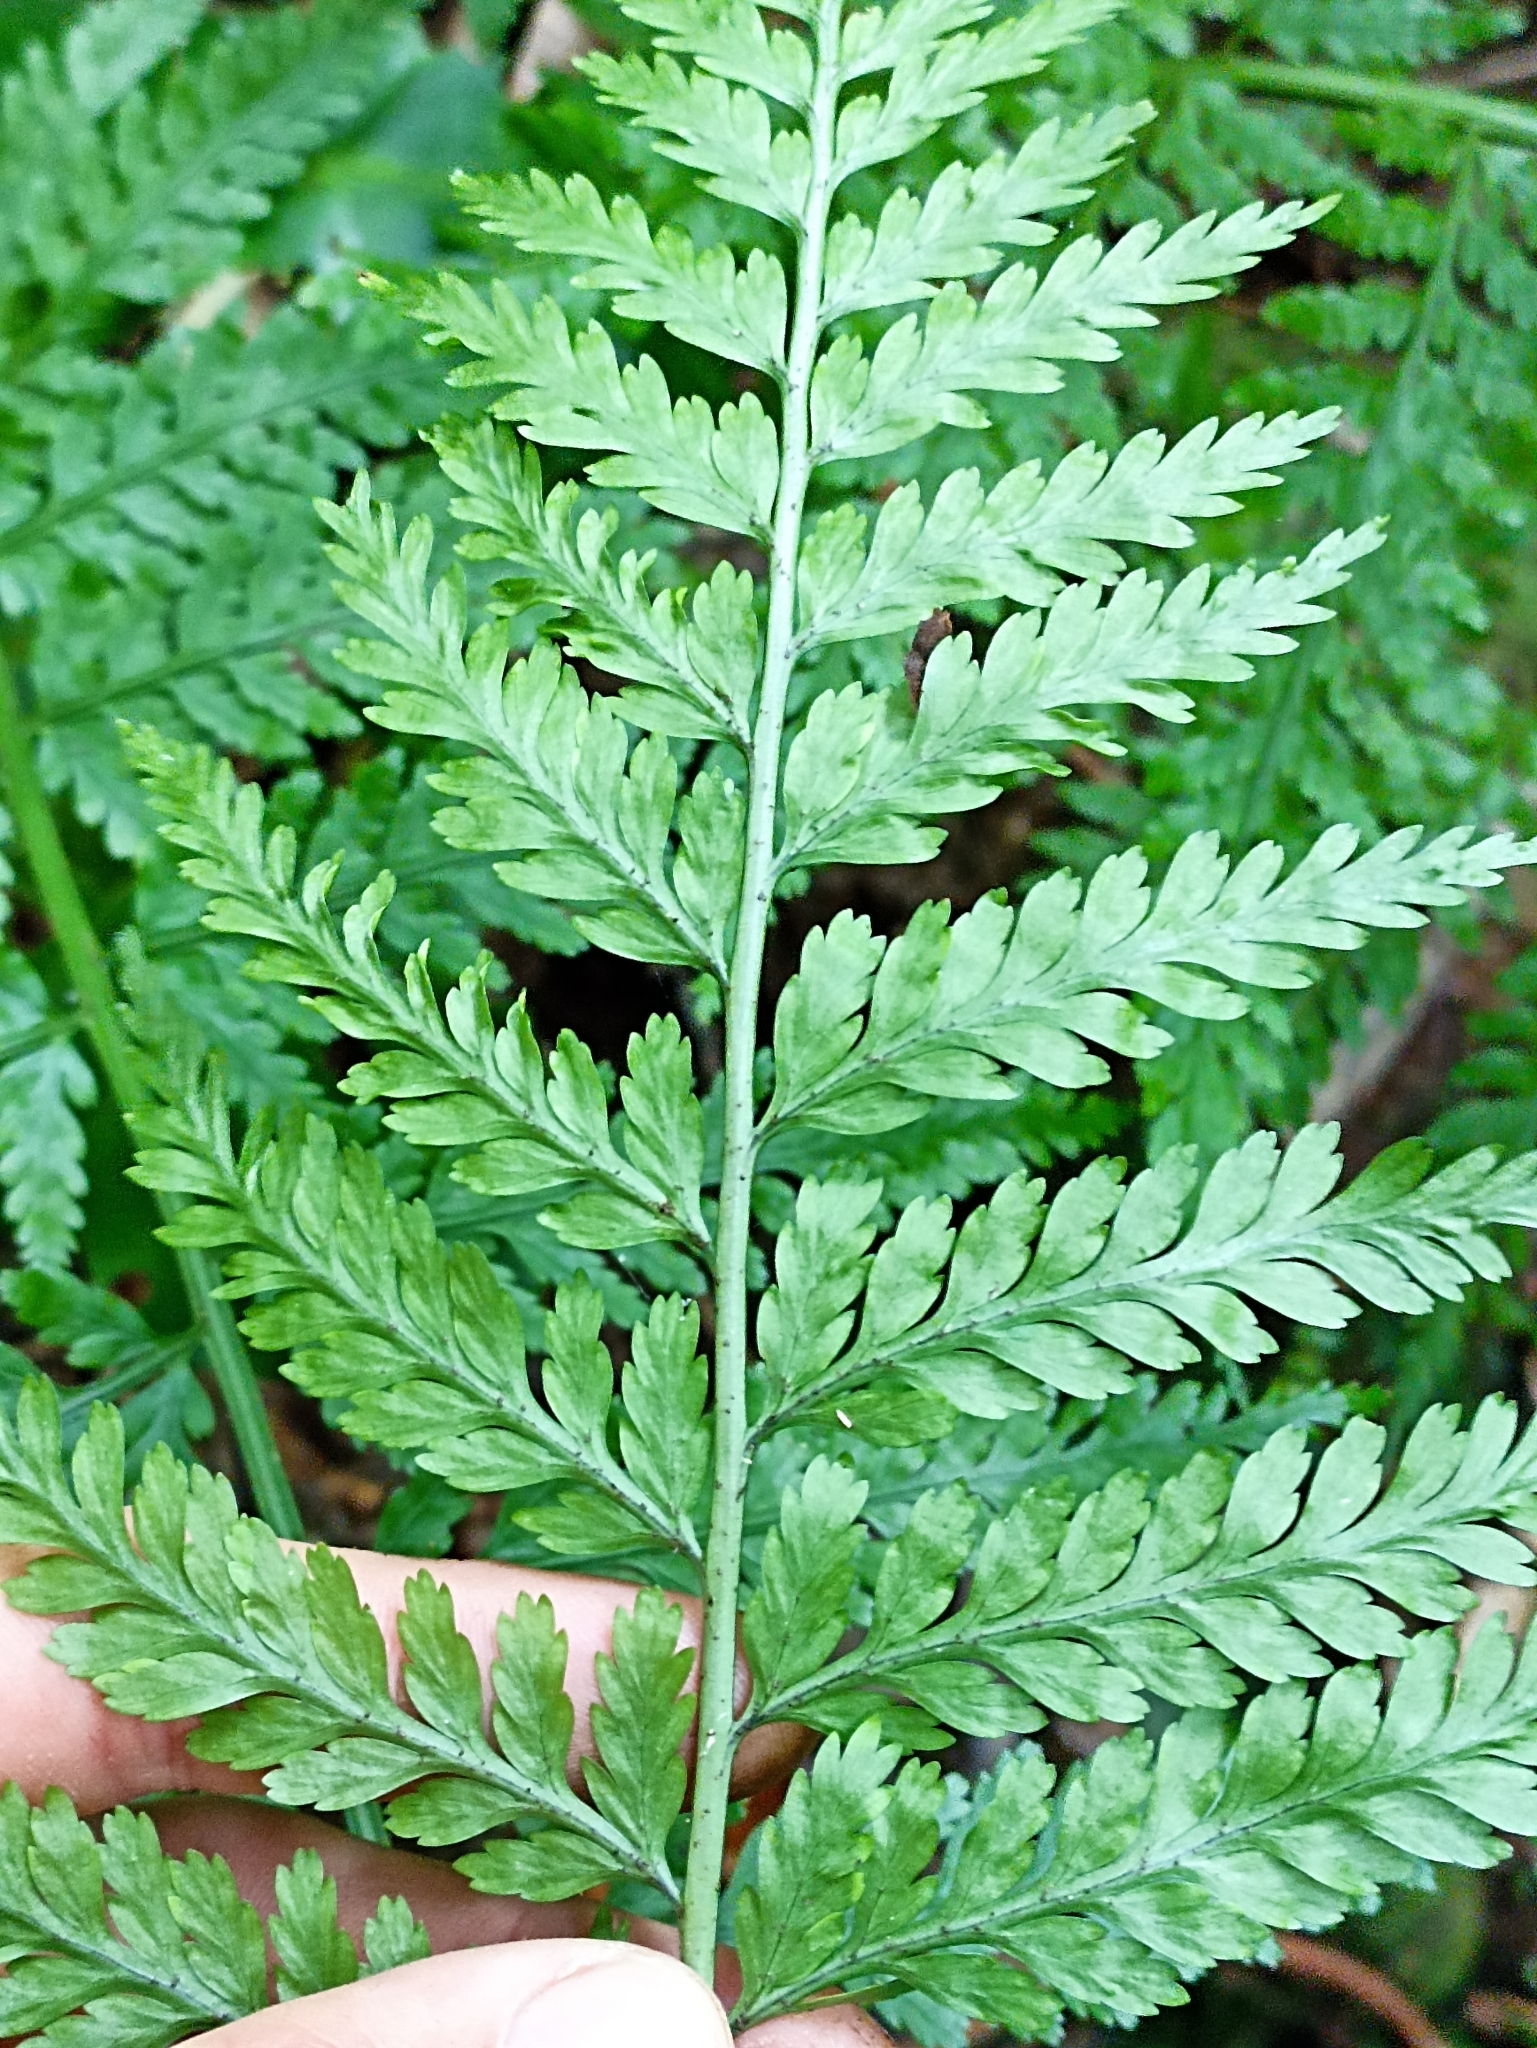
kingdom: Plantae
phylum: Tracheophyta
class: Polypodiopsida
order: Polypodiales
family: Aspleniaceae
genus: Asplenium
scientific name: Asplenium bulbiferum
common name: Mother fern
